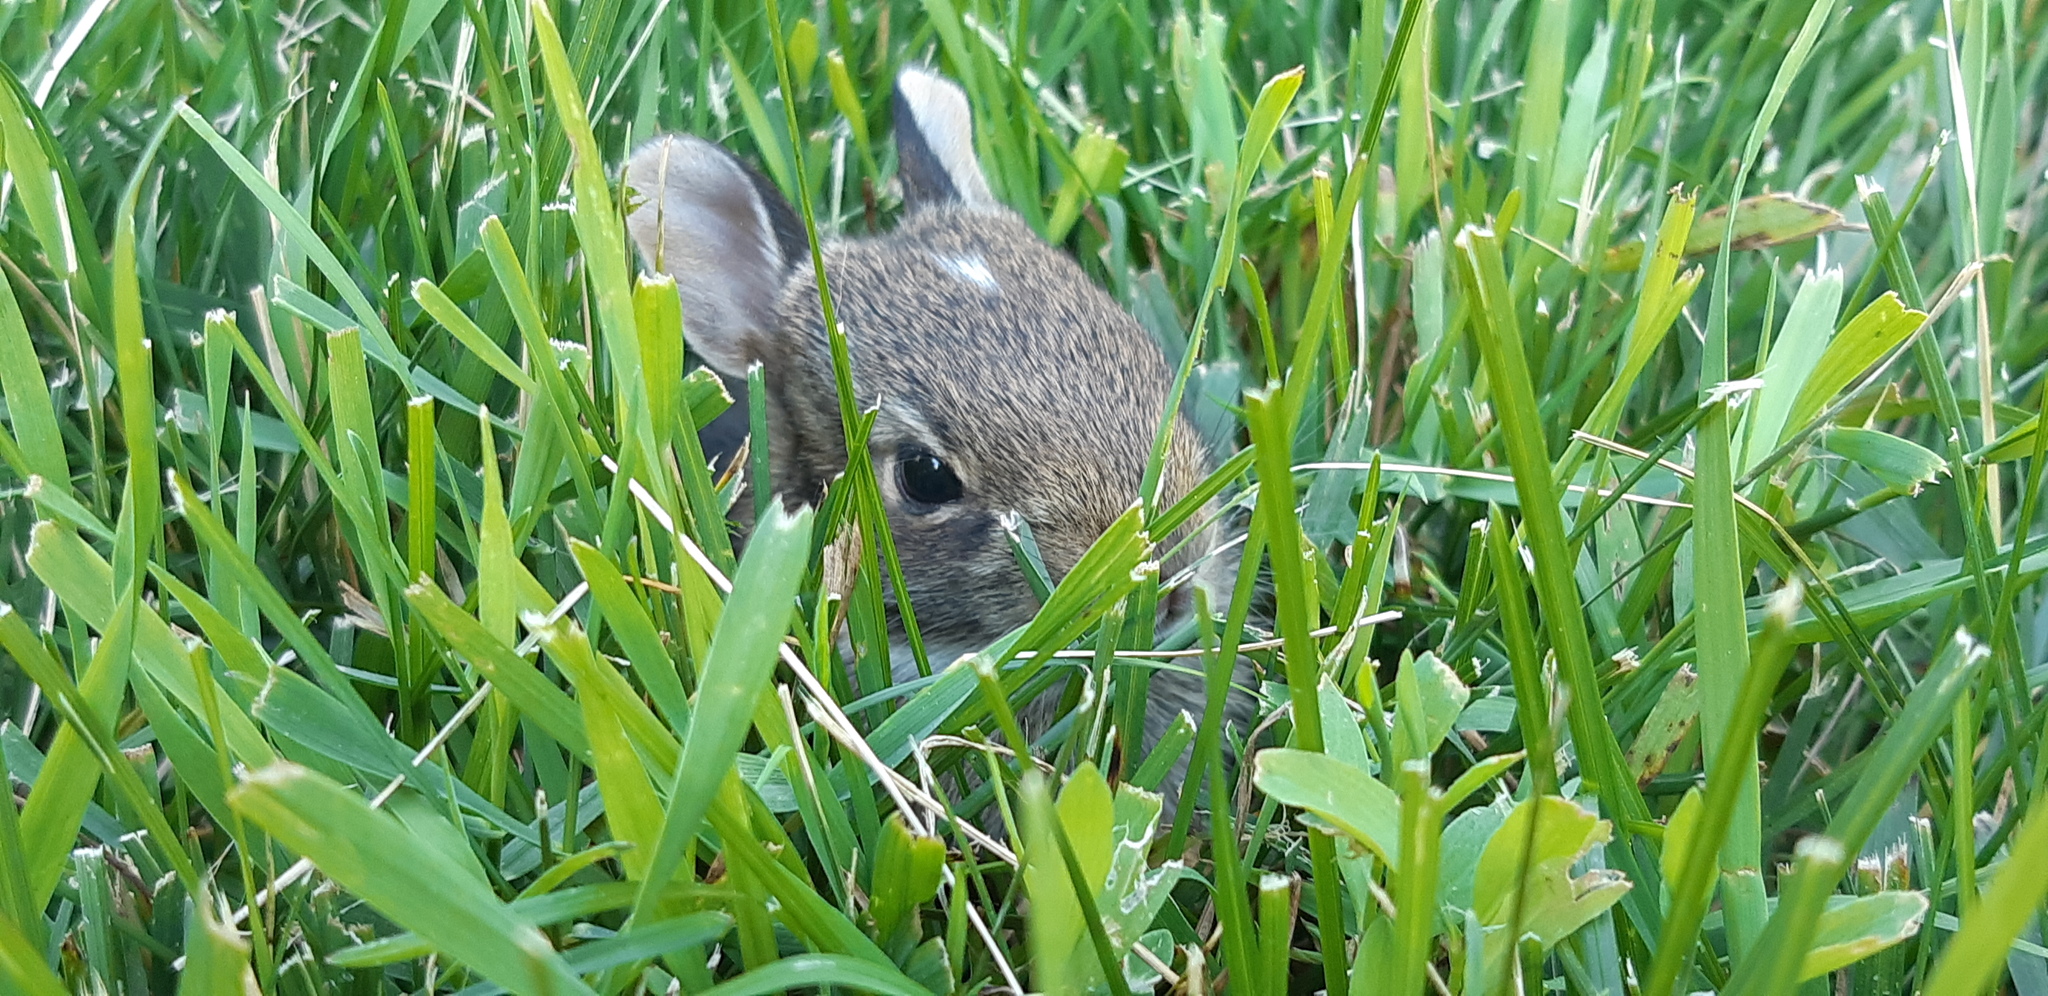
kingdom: Animalia
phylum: Chordata
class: Mammalia
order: Lagomorpha
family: Leporidae
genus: Sylvilagus
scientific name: Sylvilagus floridanus
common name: Eastern cottontail
